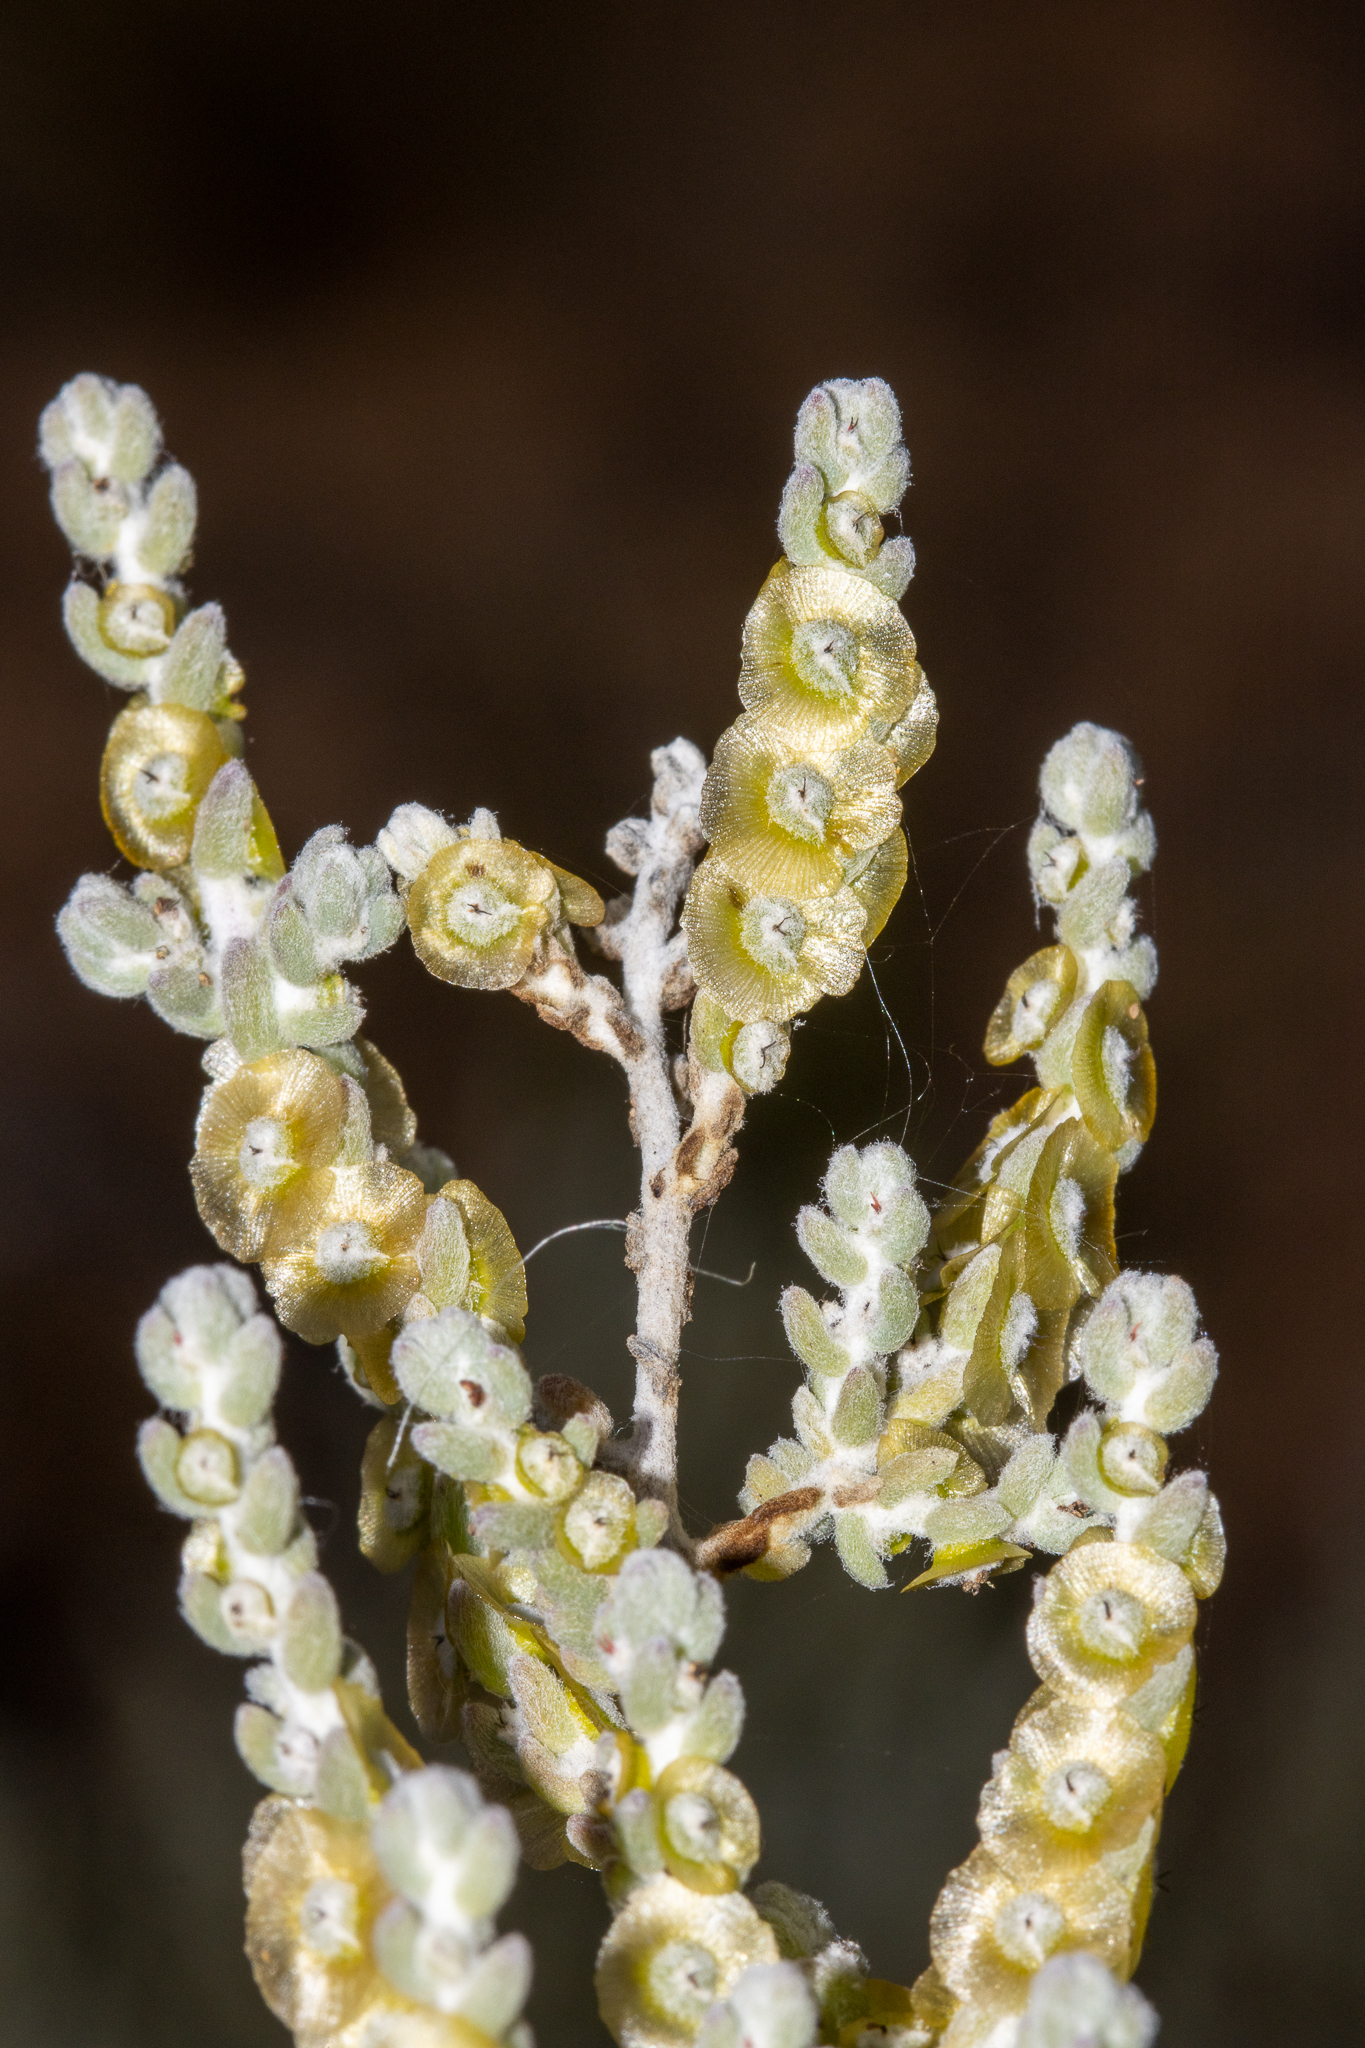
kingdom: Plantae
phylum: Tracheophyta
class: Magnoliopsida
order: Caryophyllales
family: Amaranthaceae
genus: Maireana
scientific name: Maireana radiata
